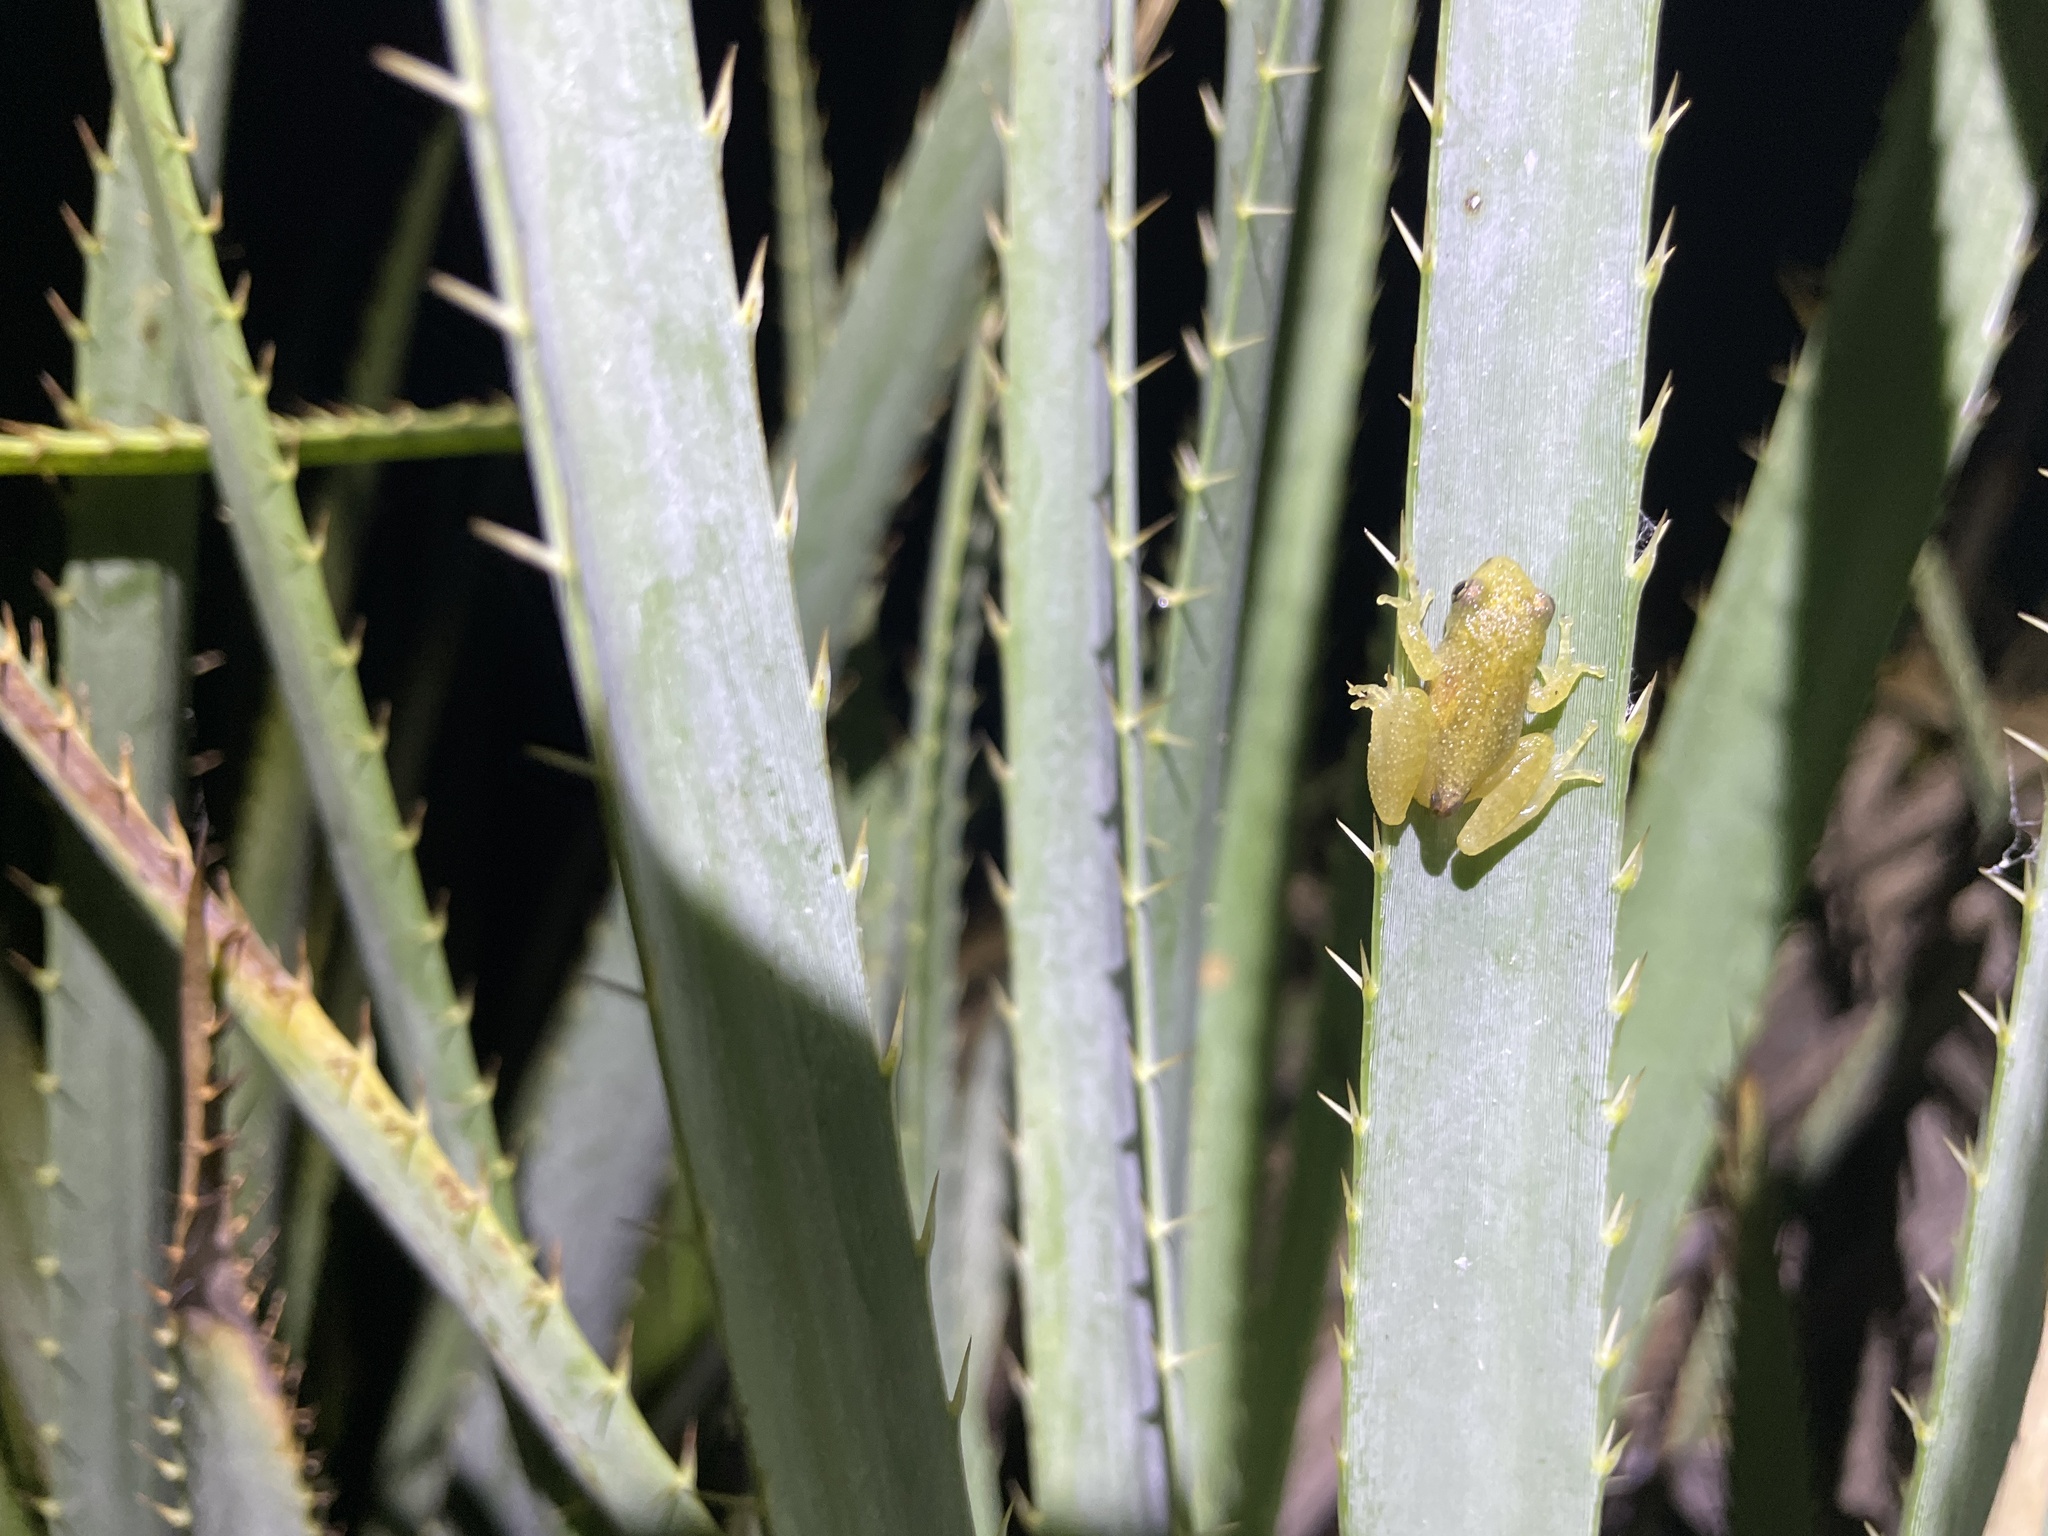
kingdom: Animalia
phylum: Chordata
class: Amphibia
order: Anura
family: Hylidae
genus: Dendropsophus
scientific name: Dendropsophus sanborni
